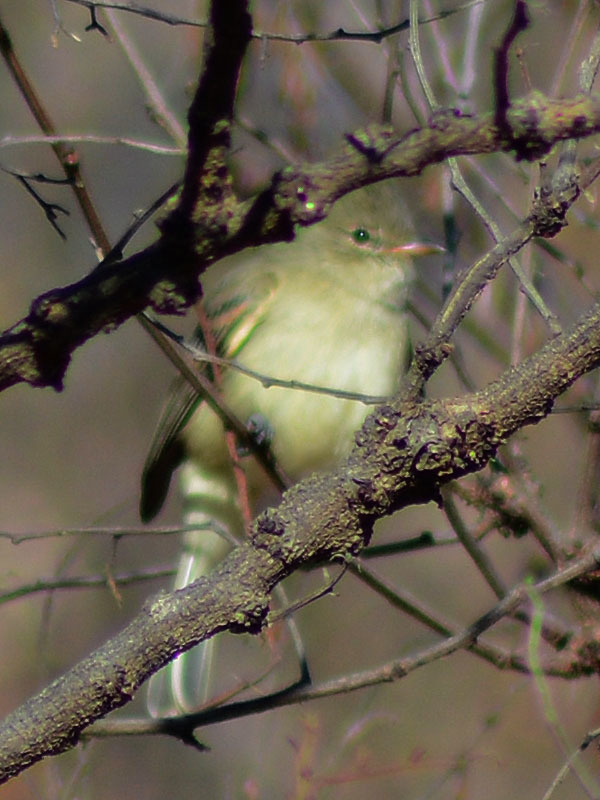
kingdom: Animalia
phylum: Chordata
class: Aves
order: Passeriformes
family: Tyrannidae
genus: Camptostoma
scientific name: Camptostoma imberbe
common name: Northern beardless-tyrannulet
